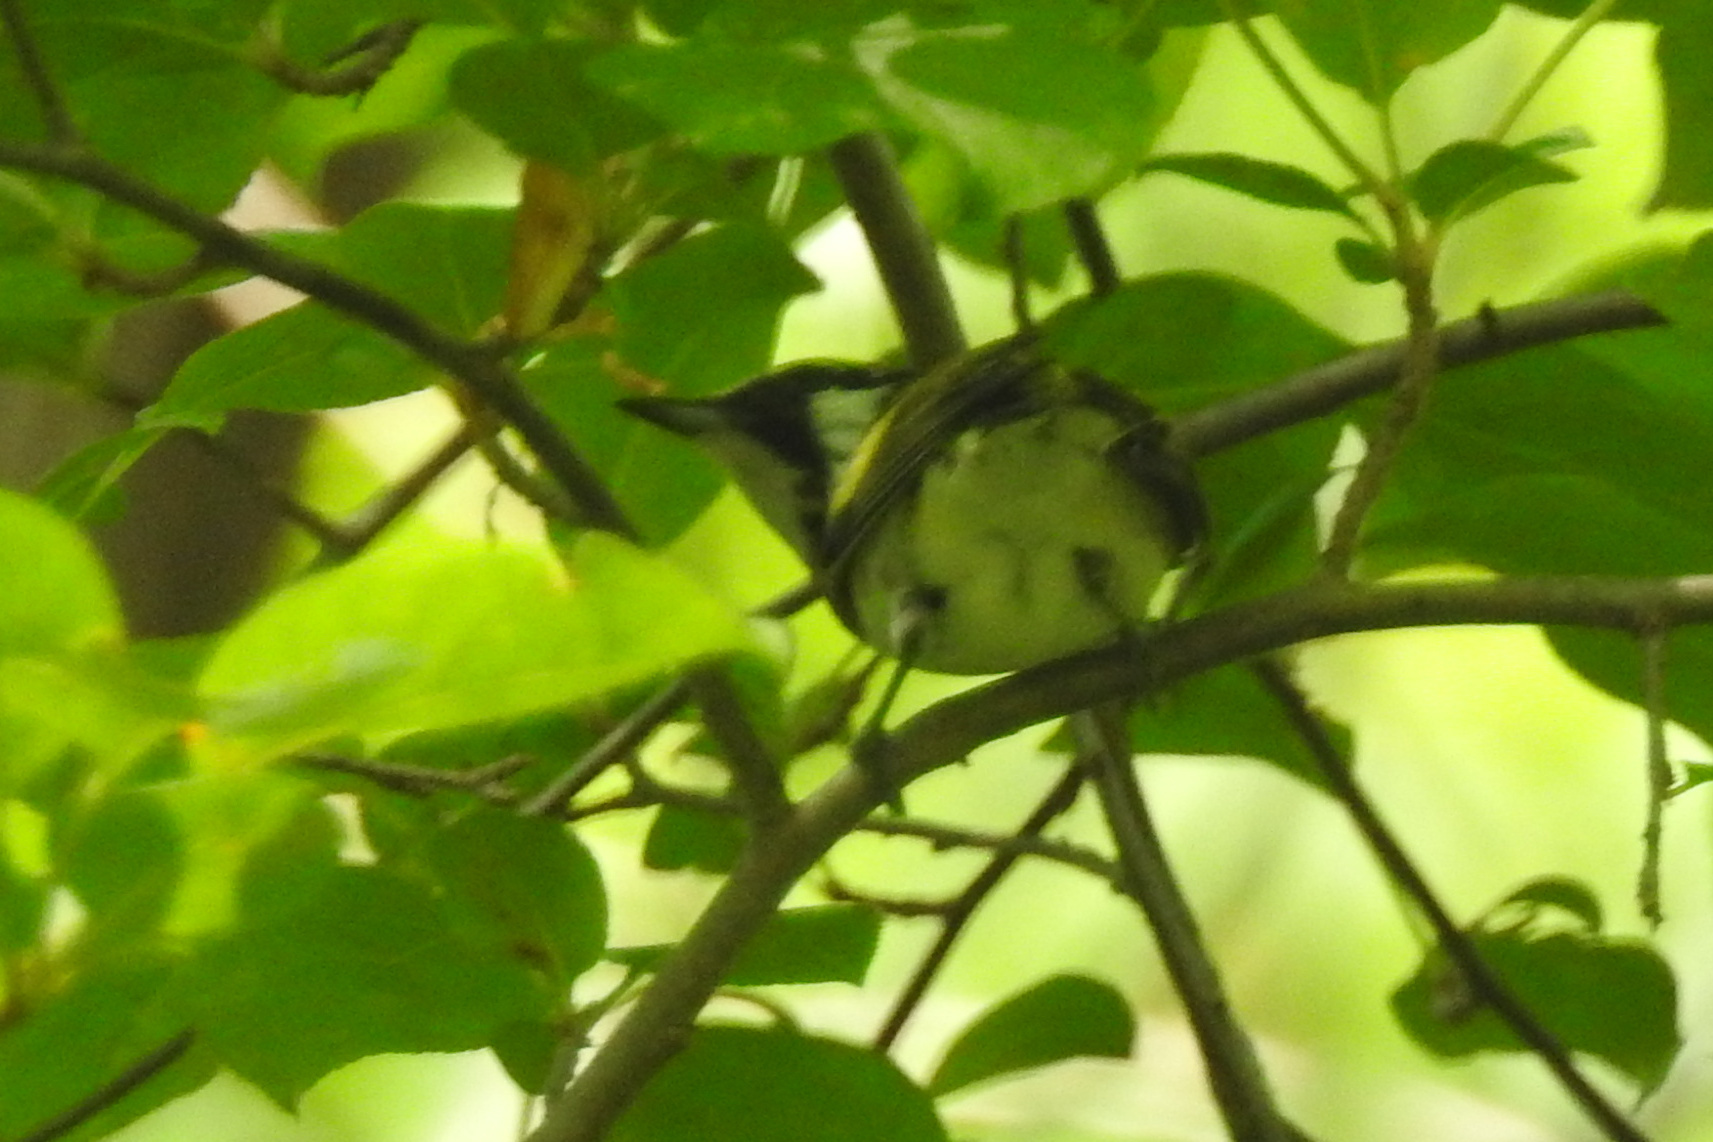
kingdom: Animalia
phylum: Chordata
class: Aves
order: Passeriformes
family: Parulidae
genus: Setophaga
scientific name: Setophaga pensylvanica
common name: Chestnut-sided warbler
